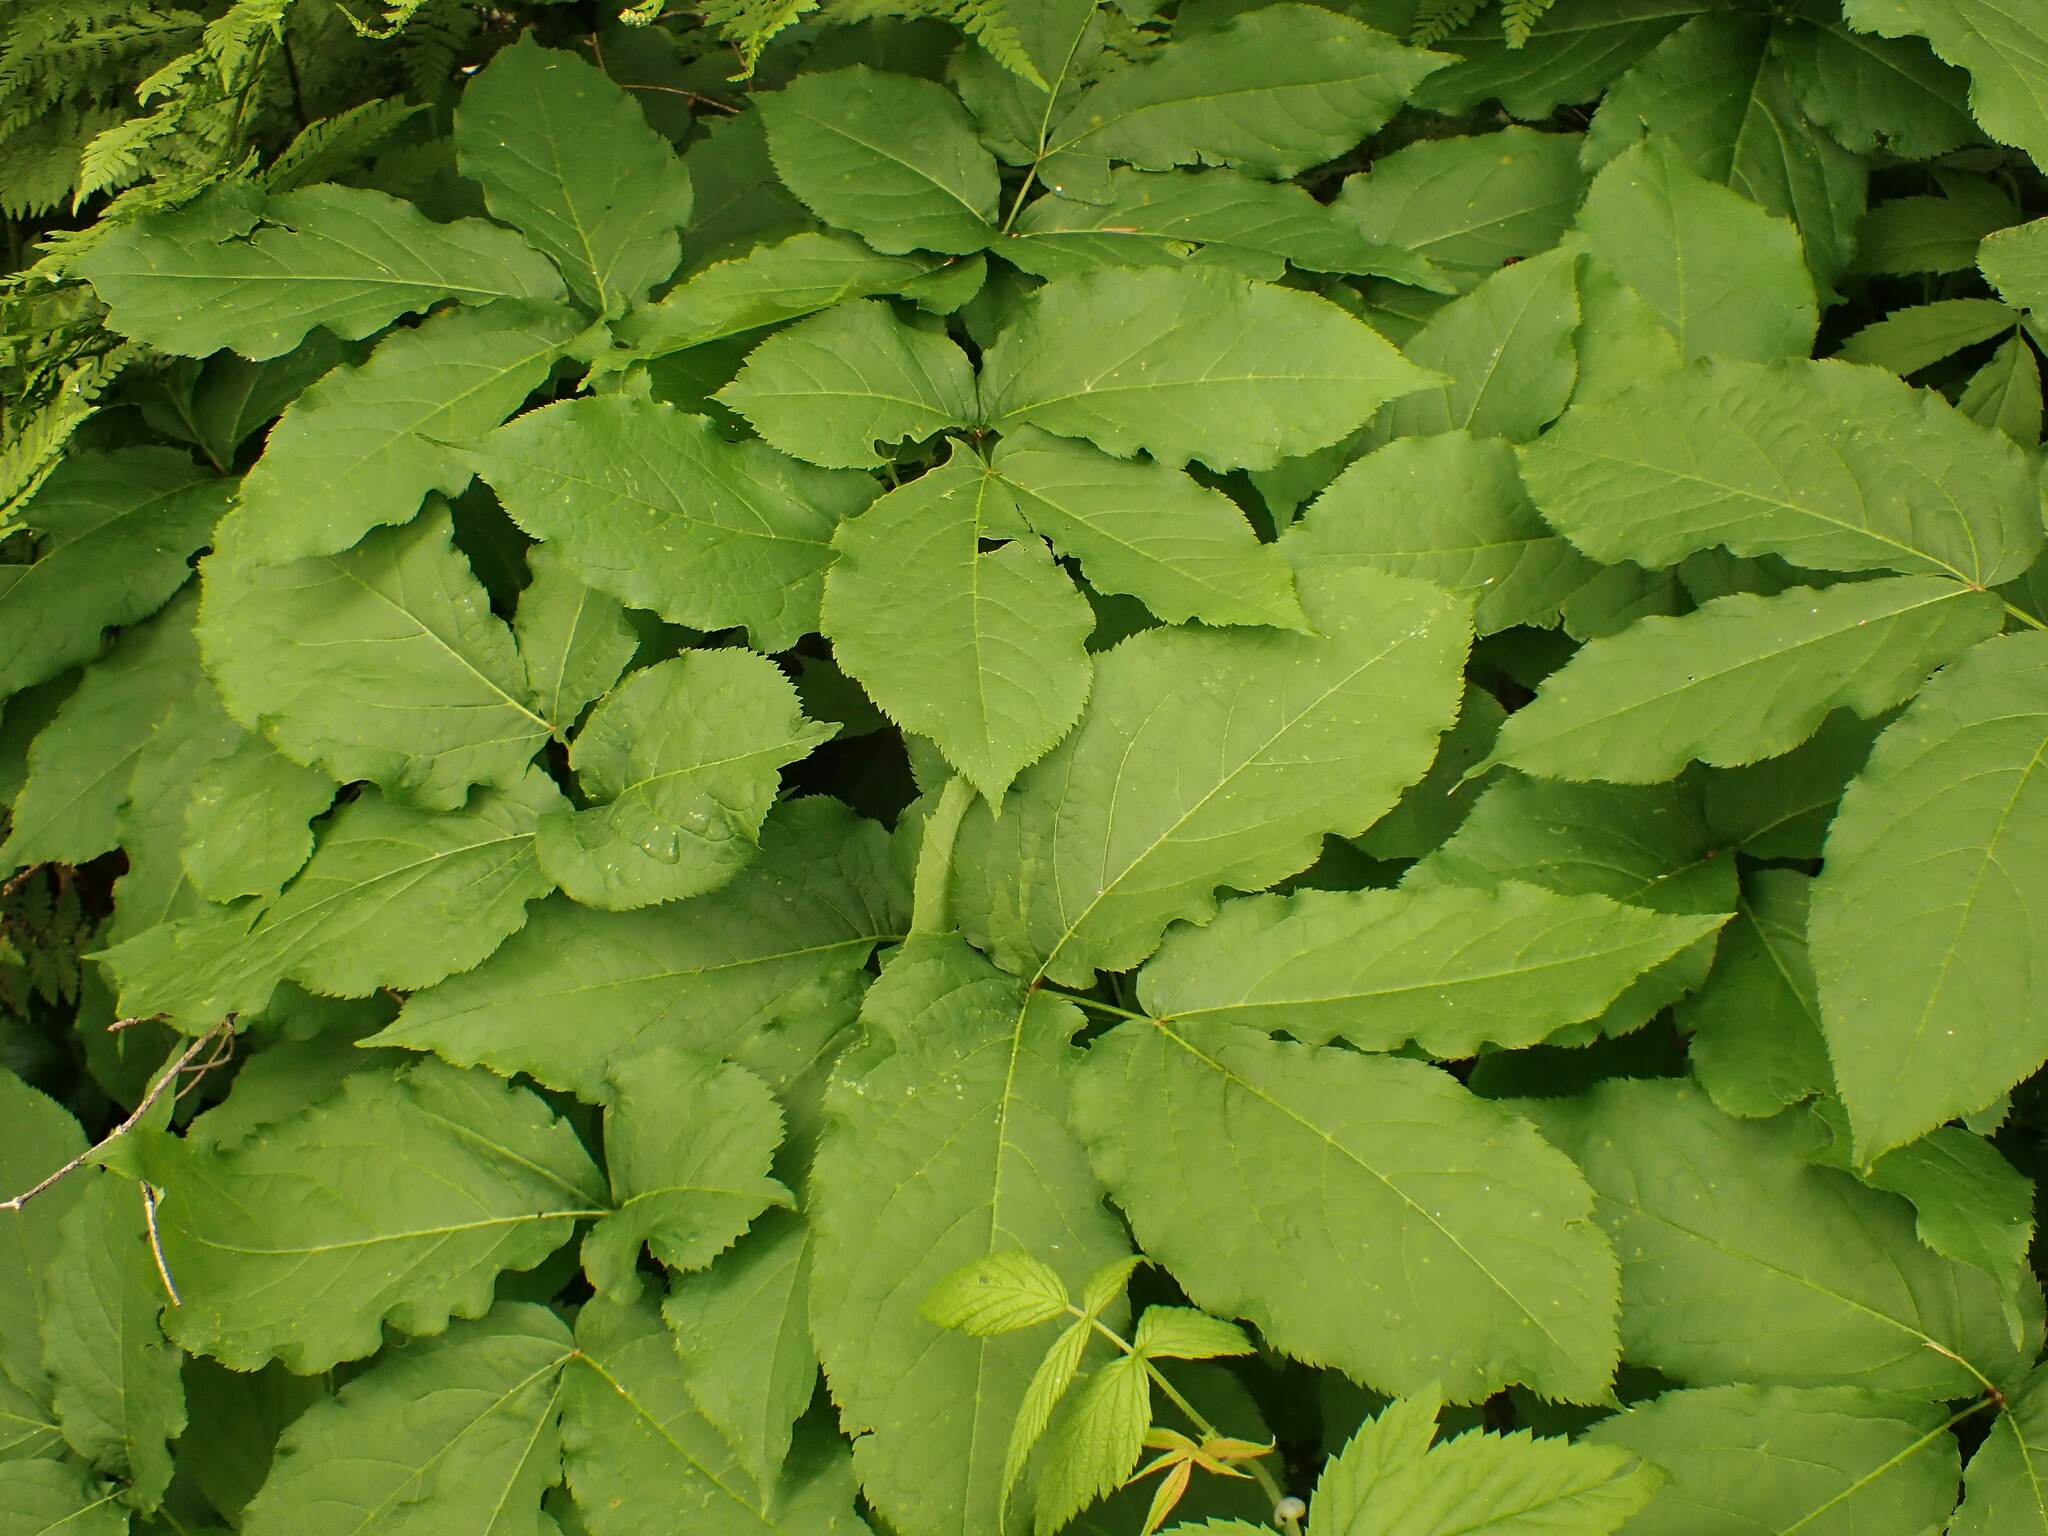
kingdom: Plantae
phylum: Tracheophyta
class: Magnoliopsida
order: Apiales
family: Araliaceae
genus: Aralia
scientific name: Aralia nudicaulis
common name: Wild sarsaparilla
